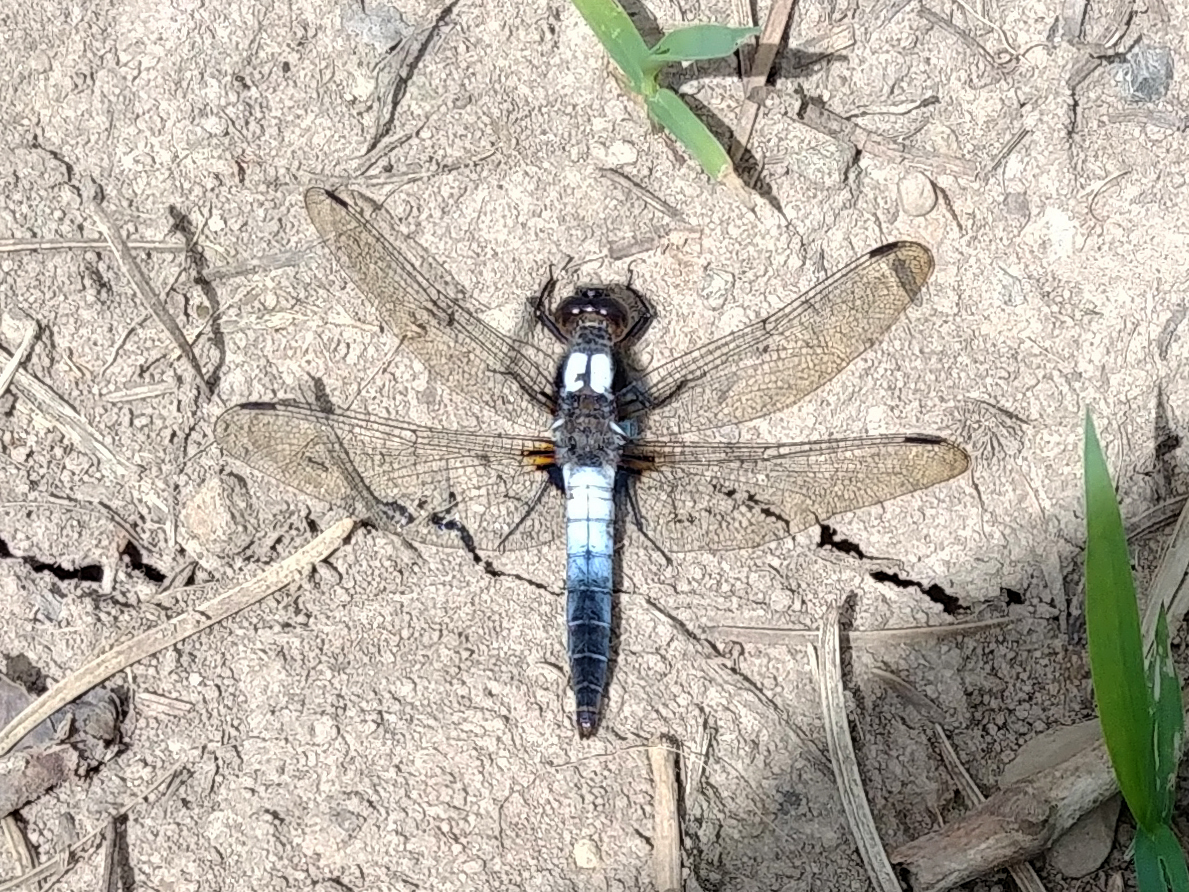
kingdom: Animalia
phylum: Arthropoda
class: Insecta
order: Odonata
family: Libellulidae
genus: Ladona
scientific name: Ladona julia
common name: Chalk-fronted corporal
